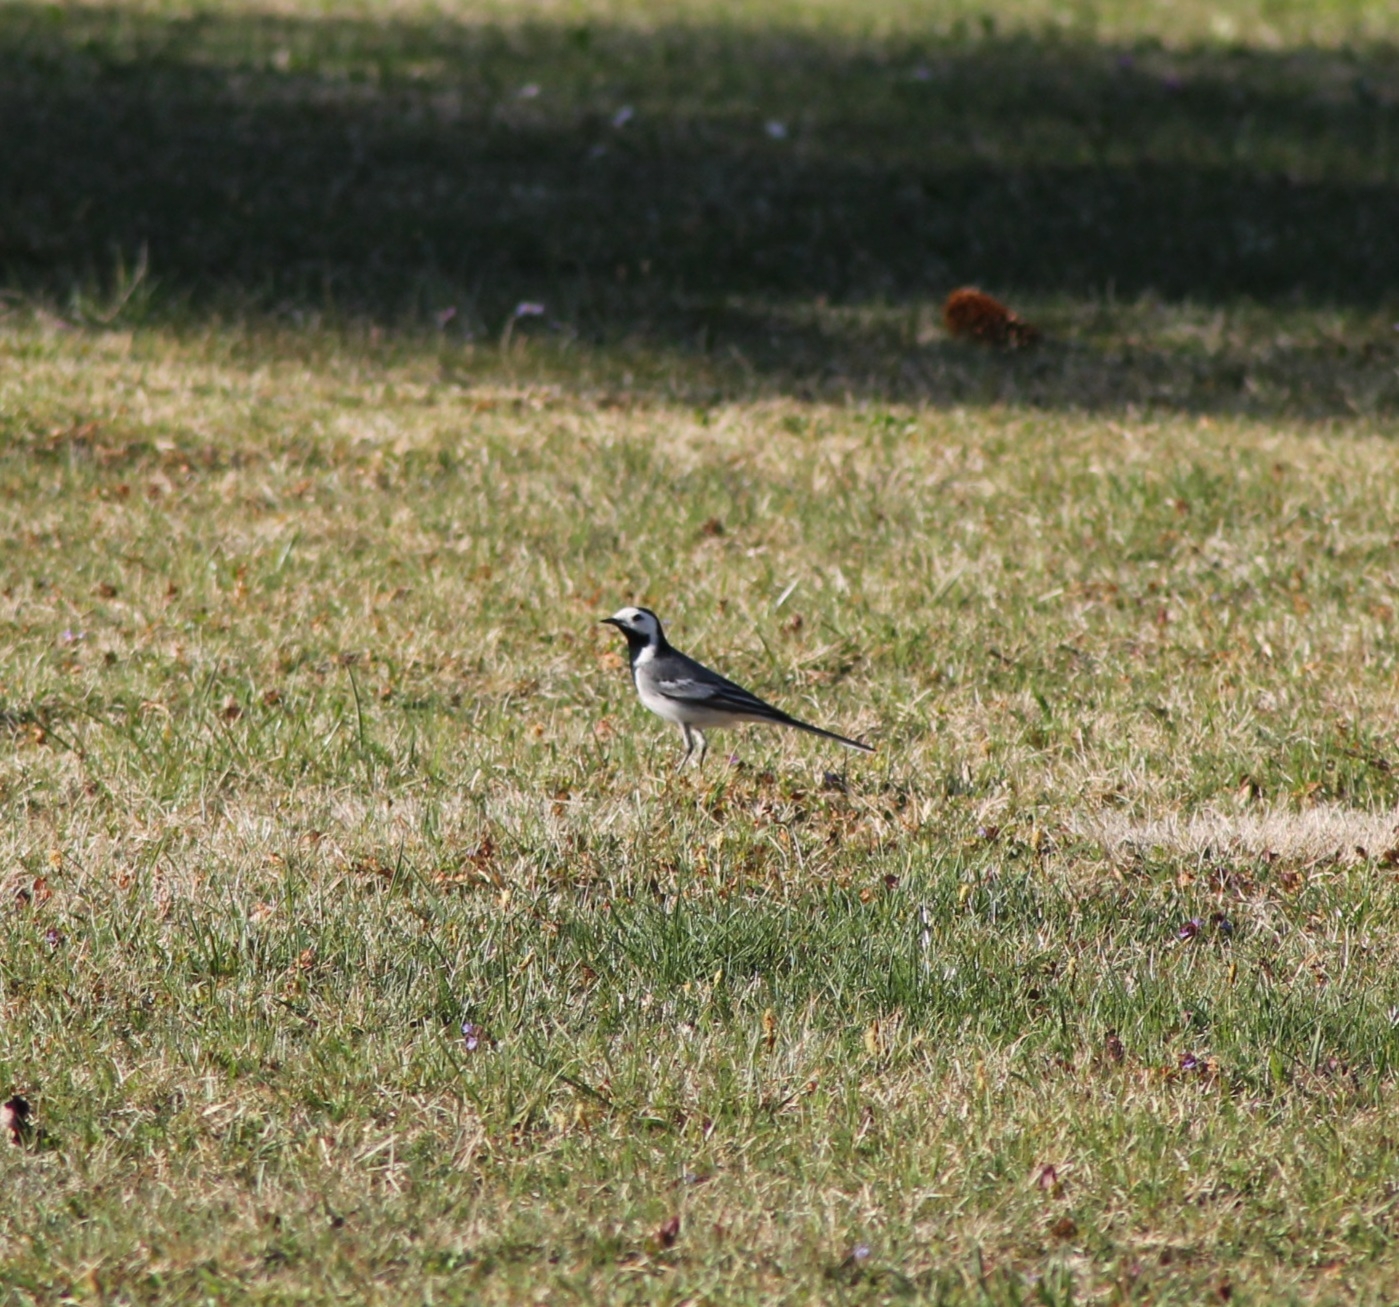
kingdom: Animalia
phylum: Chordata
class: Aves
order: Passeriformes
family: Motacillidae
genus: Motacilla
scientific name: Motacilla alba
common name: White wagtail
